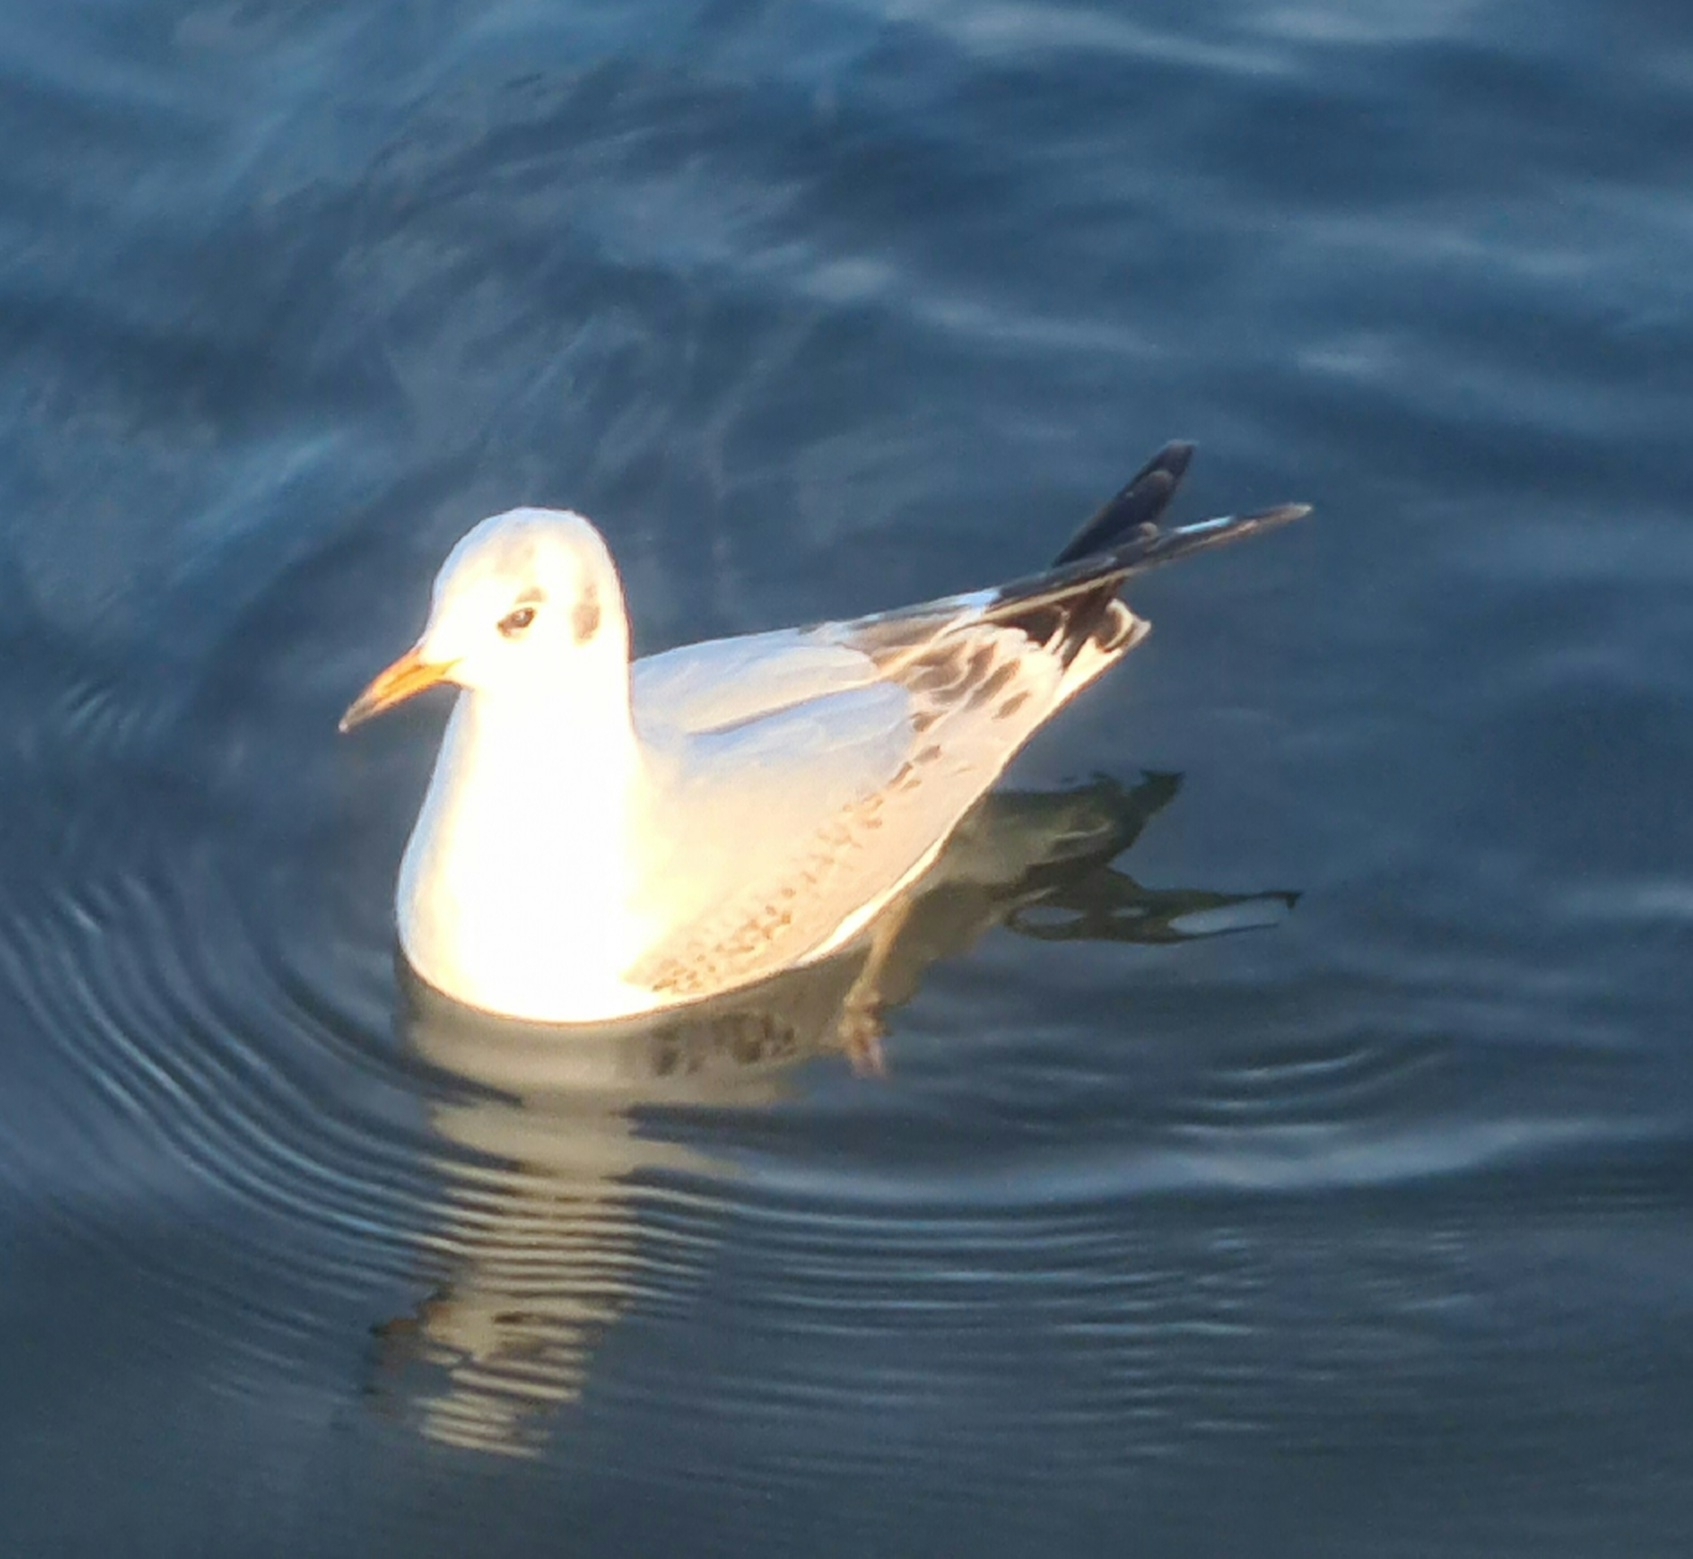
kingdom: Animalia
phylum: Chordata
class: Aves
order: Charadriiformes
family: Laridae
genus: Chroicocephalus
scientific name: Chroicocephalus ridibundus
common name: Black-headed gull
